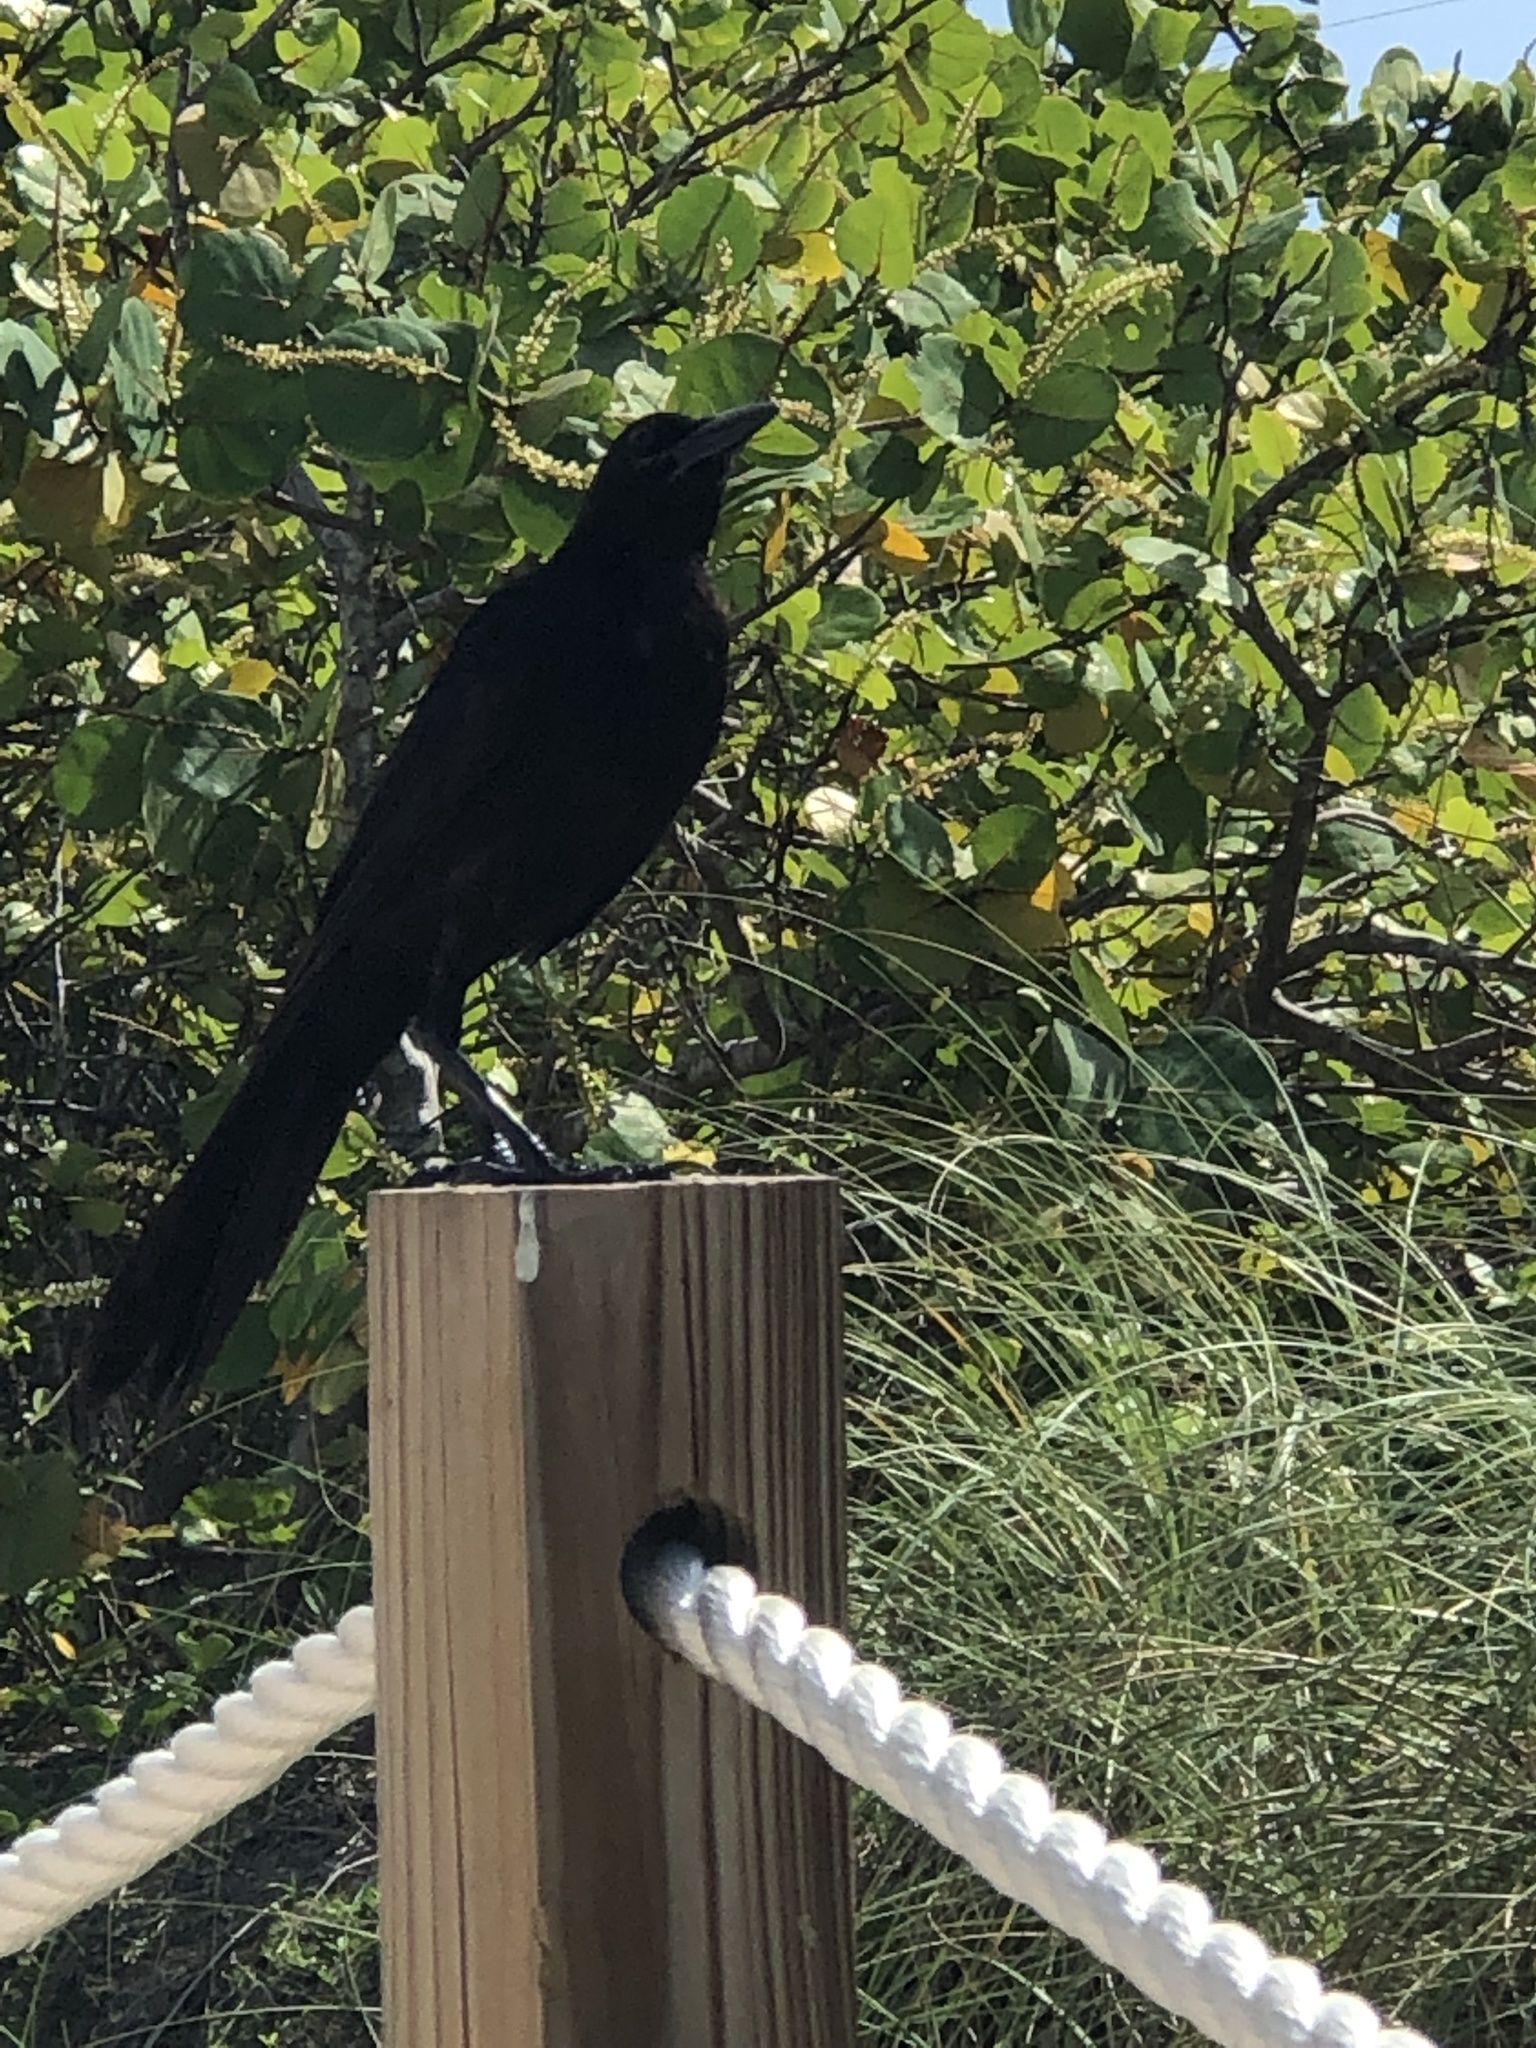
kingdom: Animalia
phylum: Chordata
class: Aves
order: Passeriformes
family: Icteridae
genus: Quiscalus
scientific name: Quiscalus major
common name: Boat-tailed grackle
